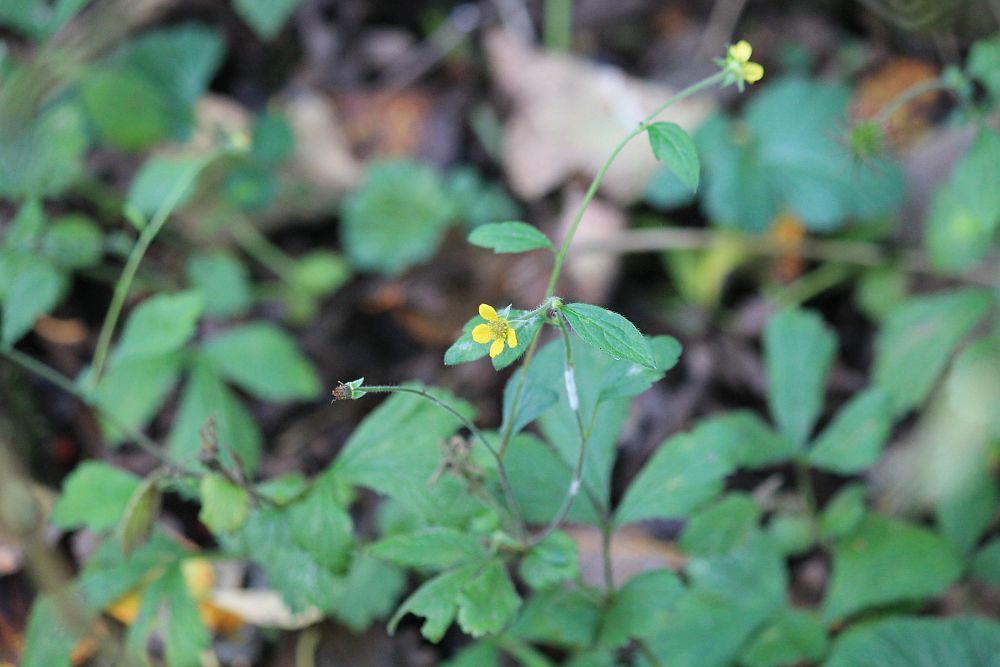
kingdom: Plantae
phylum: Tracheophyta
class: Magnoliopsida
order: Rosales
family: Rosaceae
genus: Geum
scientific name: Geum urbanum
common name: Wood avens
